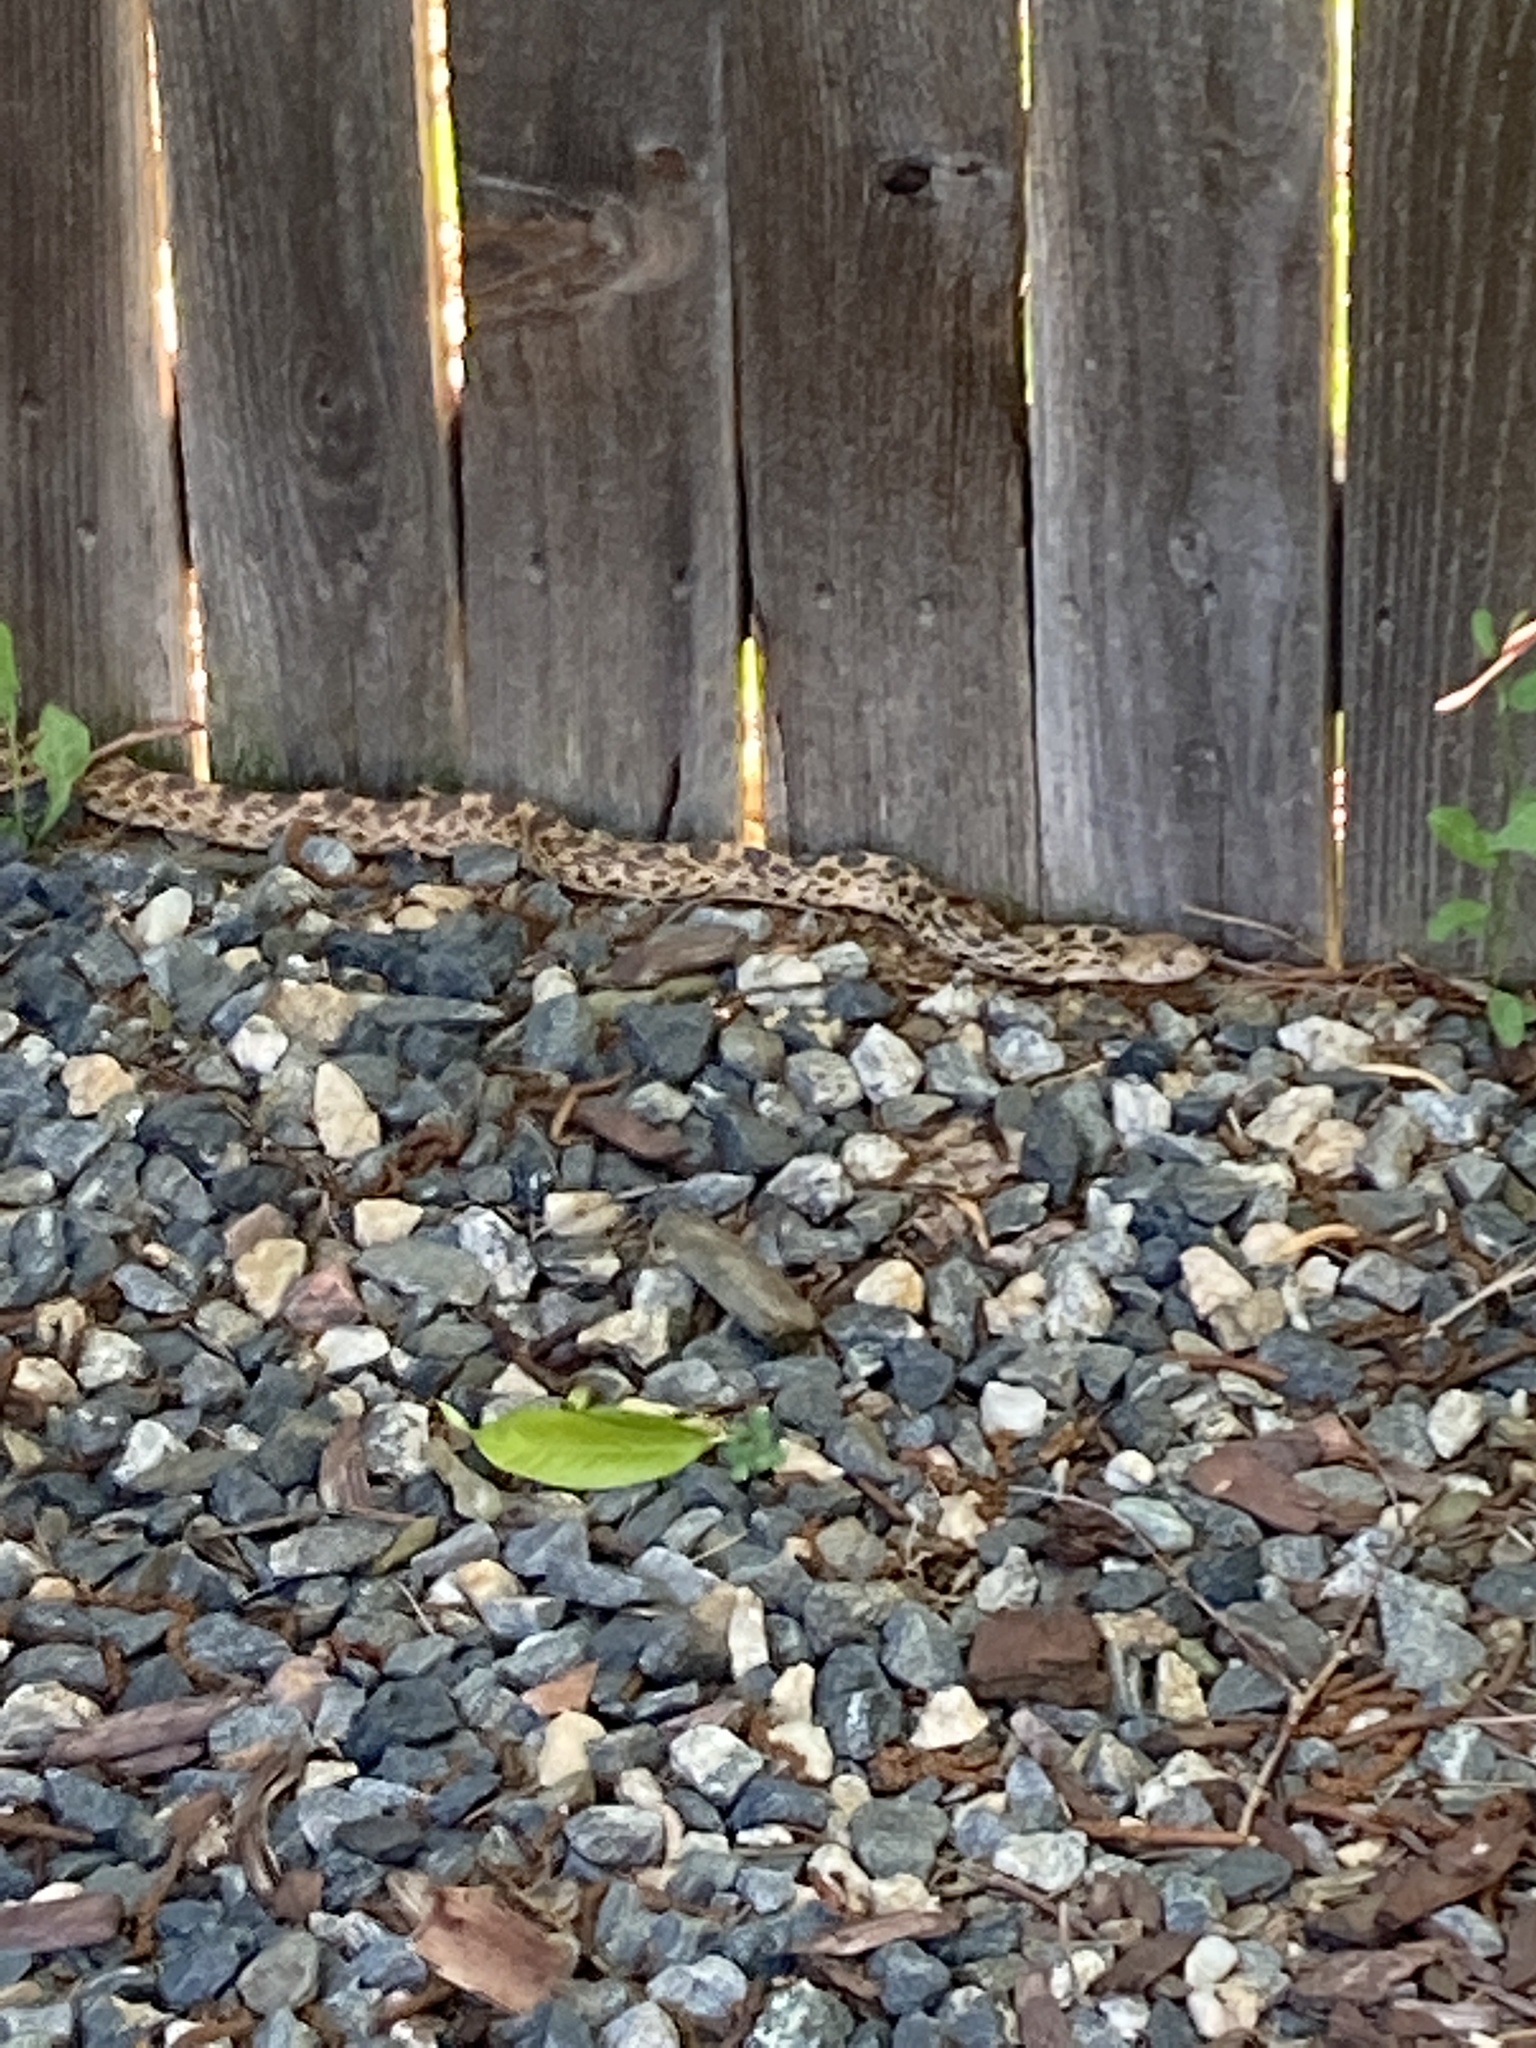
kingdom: Animalia
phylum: Chordata
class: Squamata
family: Colubridae
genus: Pituophis
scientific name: Pituophis catenifer
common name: Gopher snake
